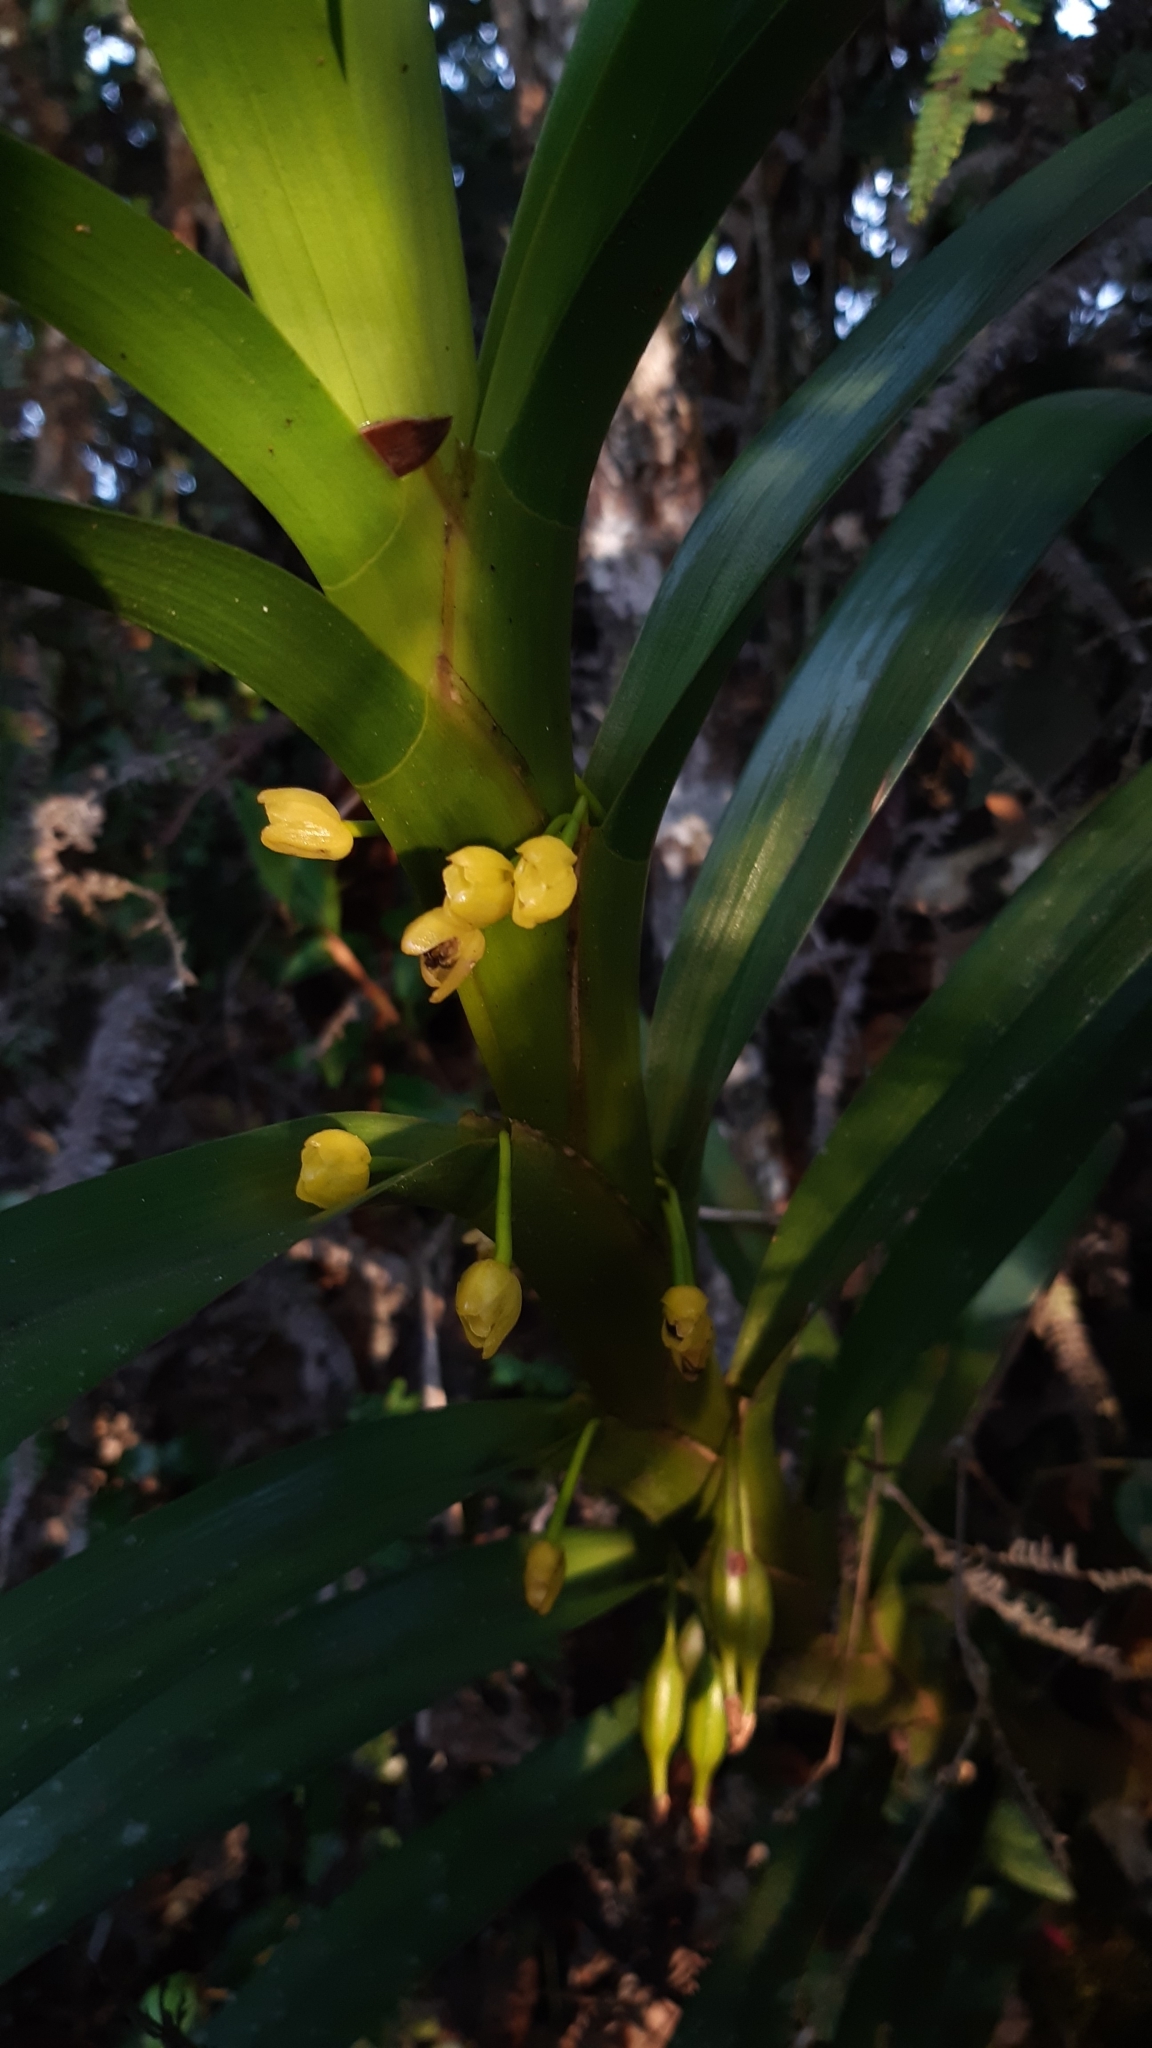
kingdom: Plantae
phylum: Tracheophyta
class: Liliopsida
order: Asparagales
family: Orchidaceae
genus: Maxillaria
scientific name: Maxillaria aurea
